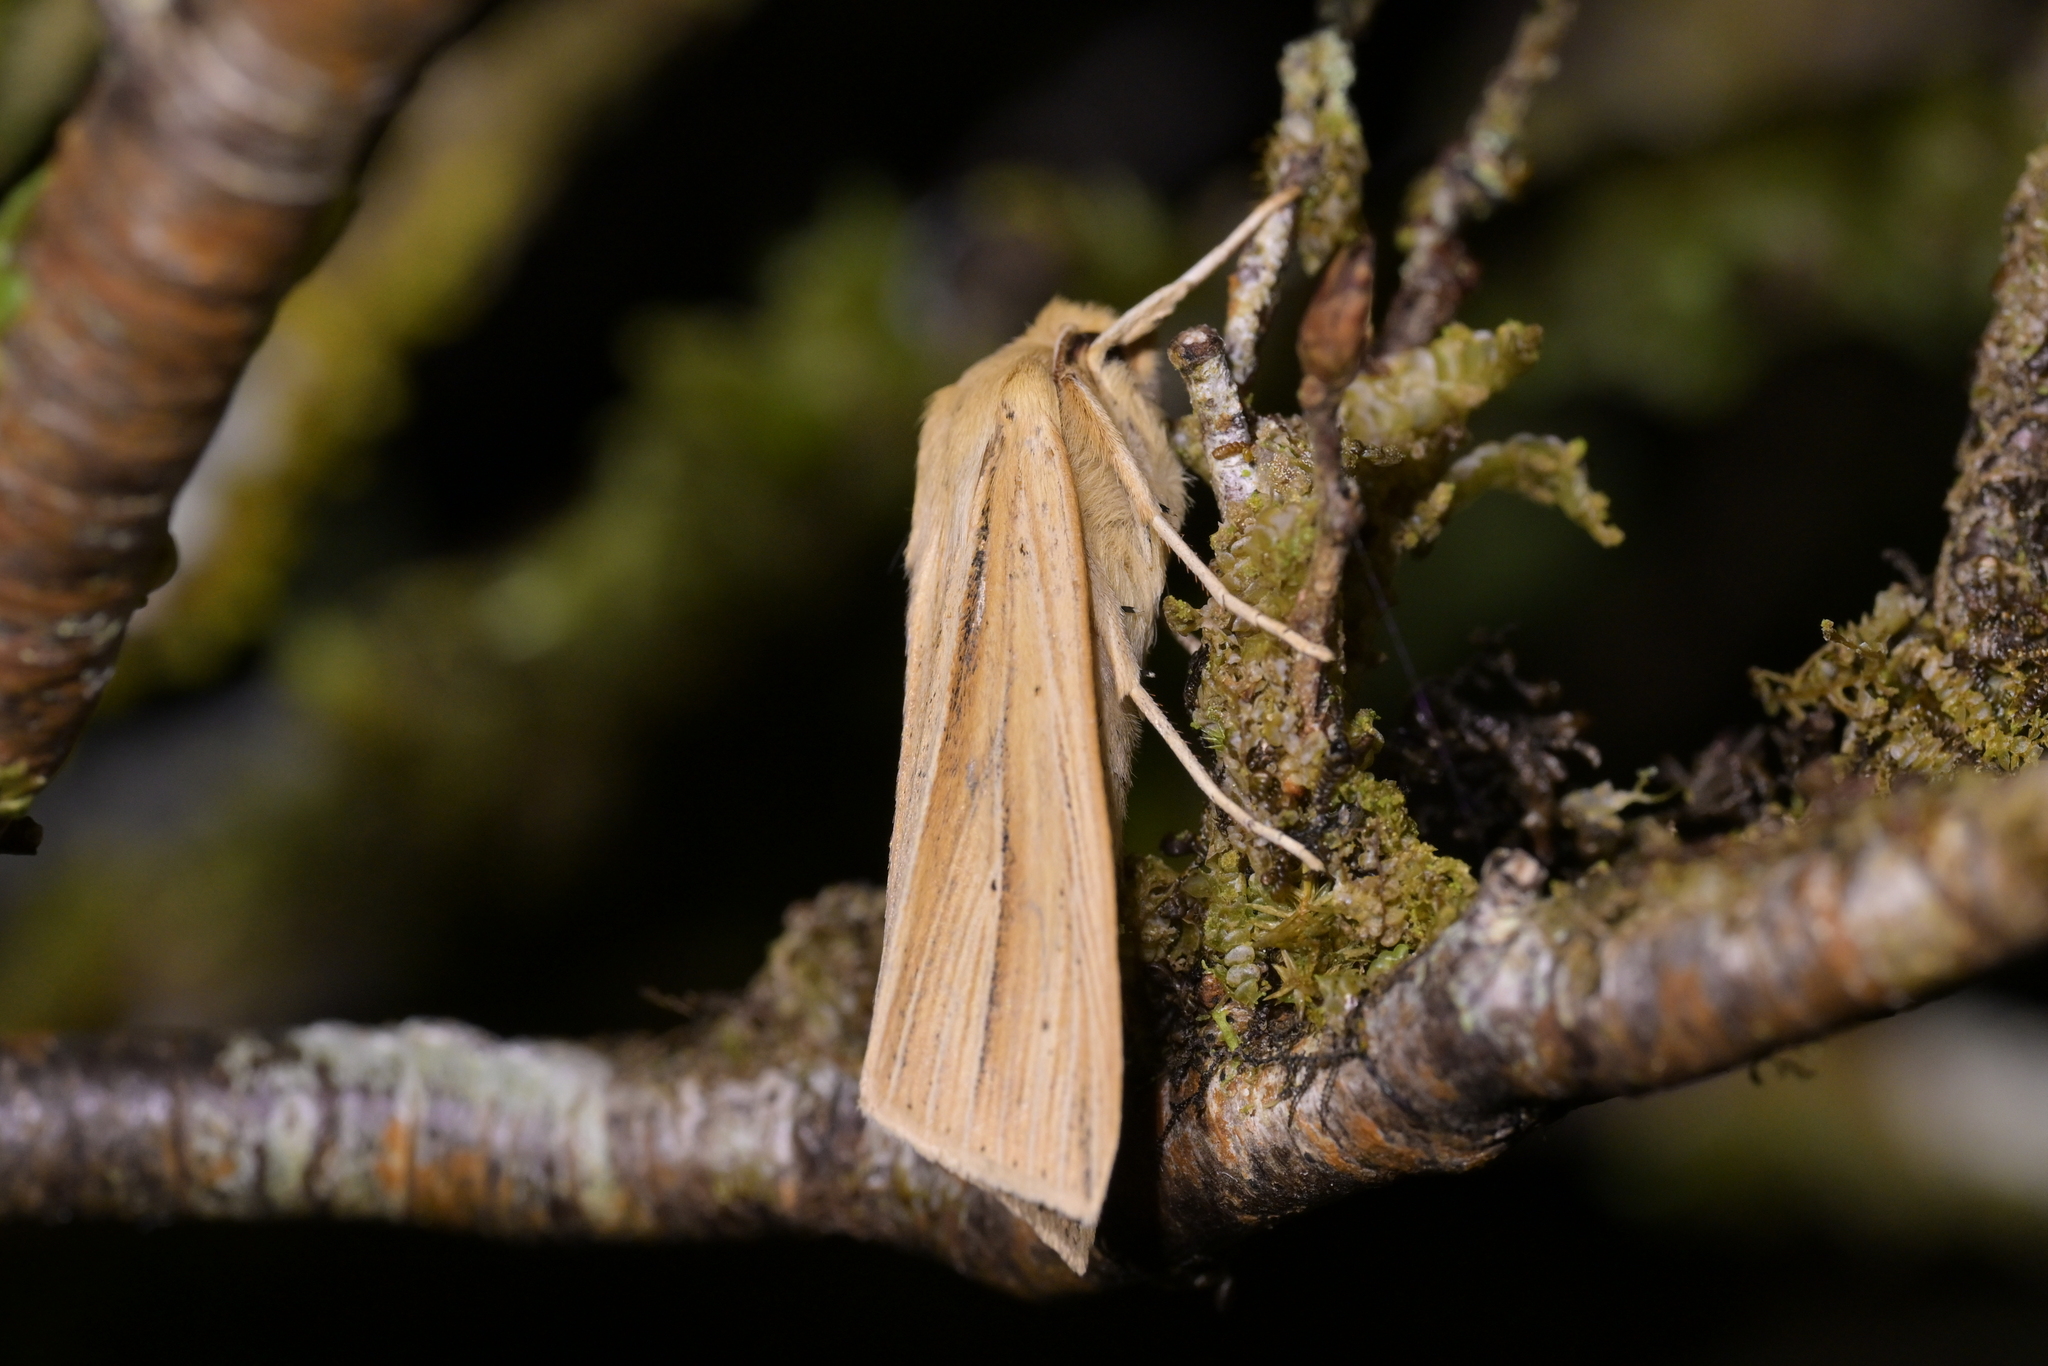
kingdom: Animalia
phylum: Arthropoda
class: Insecta
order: Lepidoptera
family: Noctuidae
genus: Ichneutica
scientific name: Ichneutica sulcana
